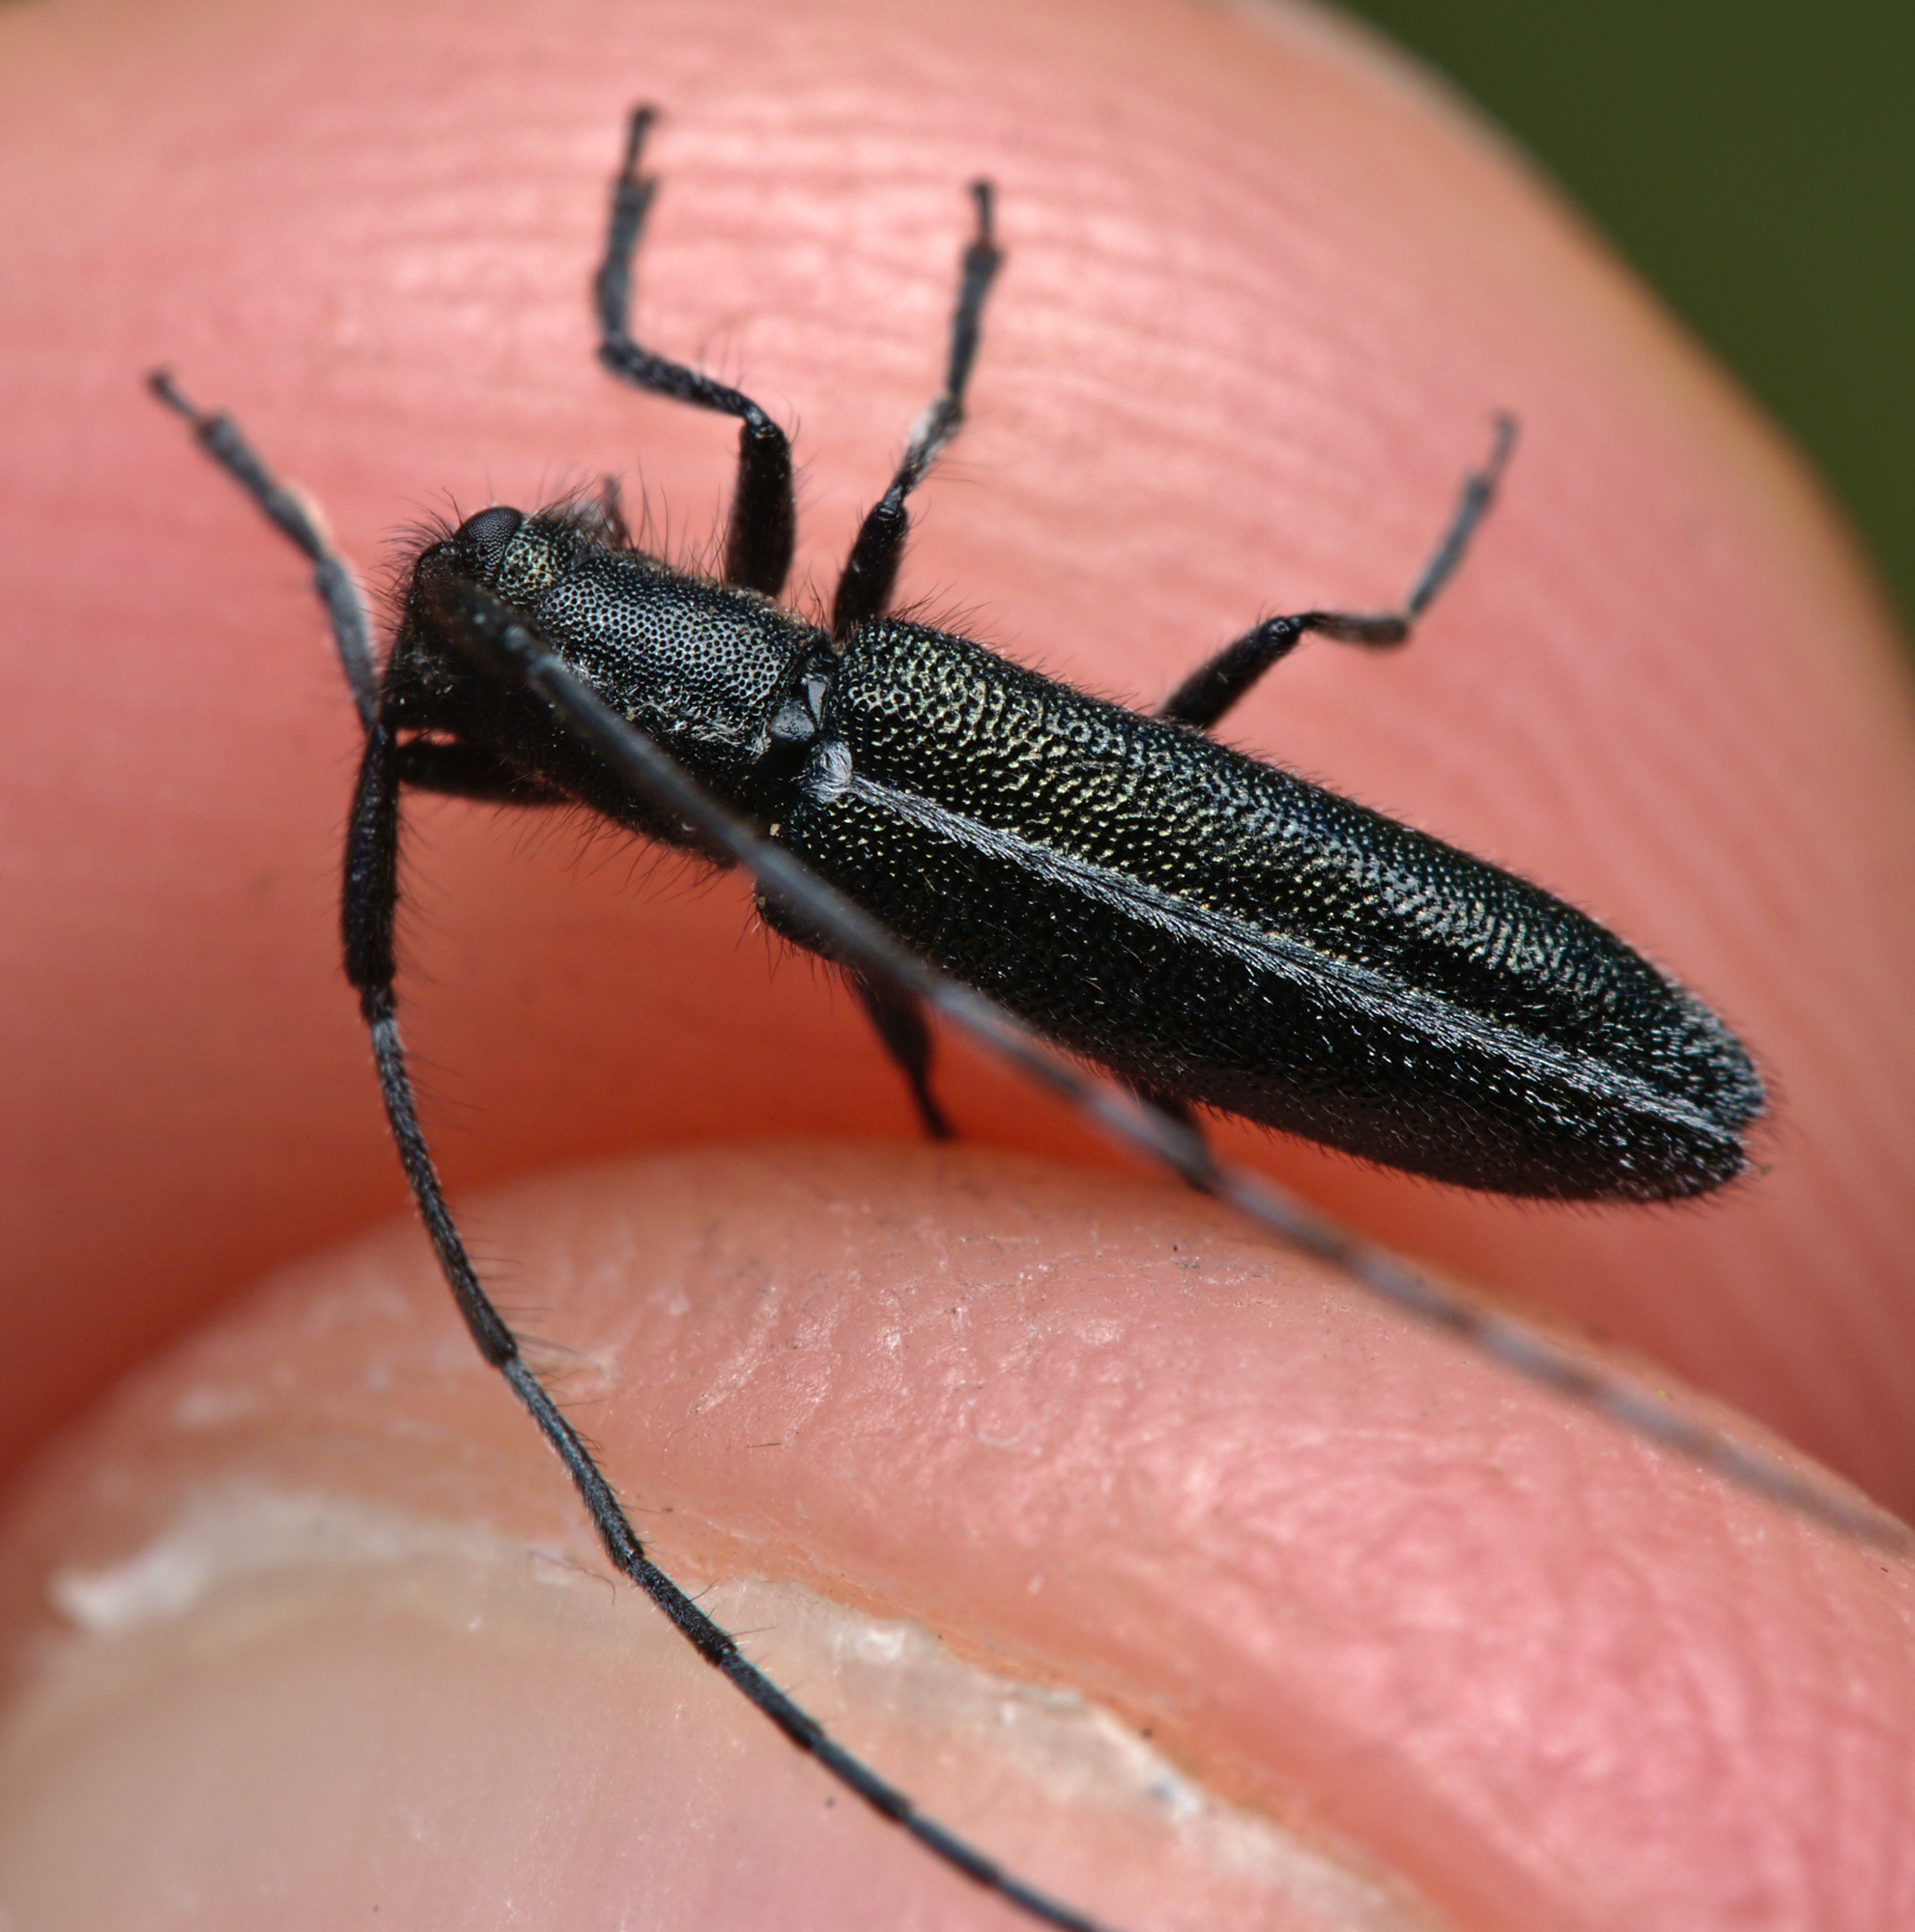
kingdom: Animalia
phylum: Arthropoda
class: Insecta
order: Coleoptera
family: Cerambycidae
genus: Agapanthia
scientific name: Agapanthia cardui
